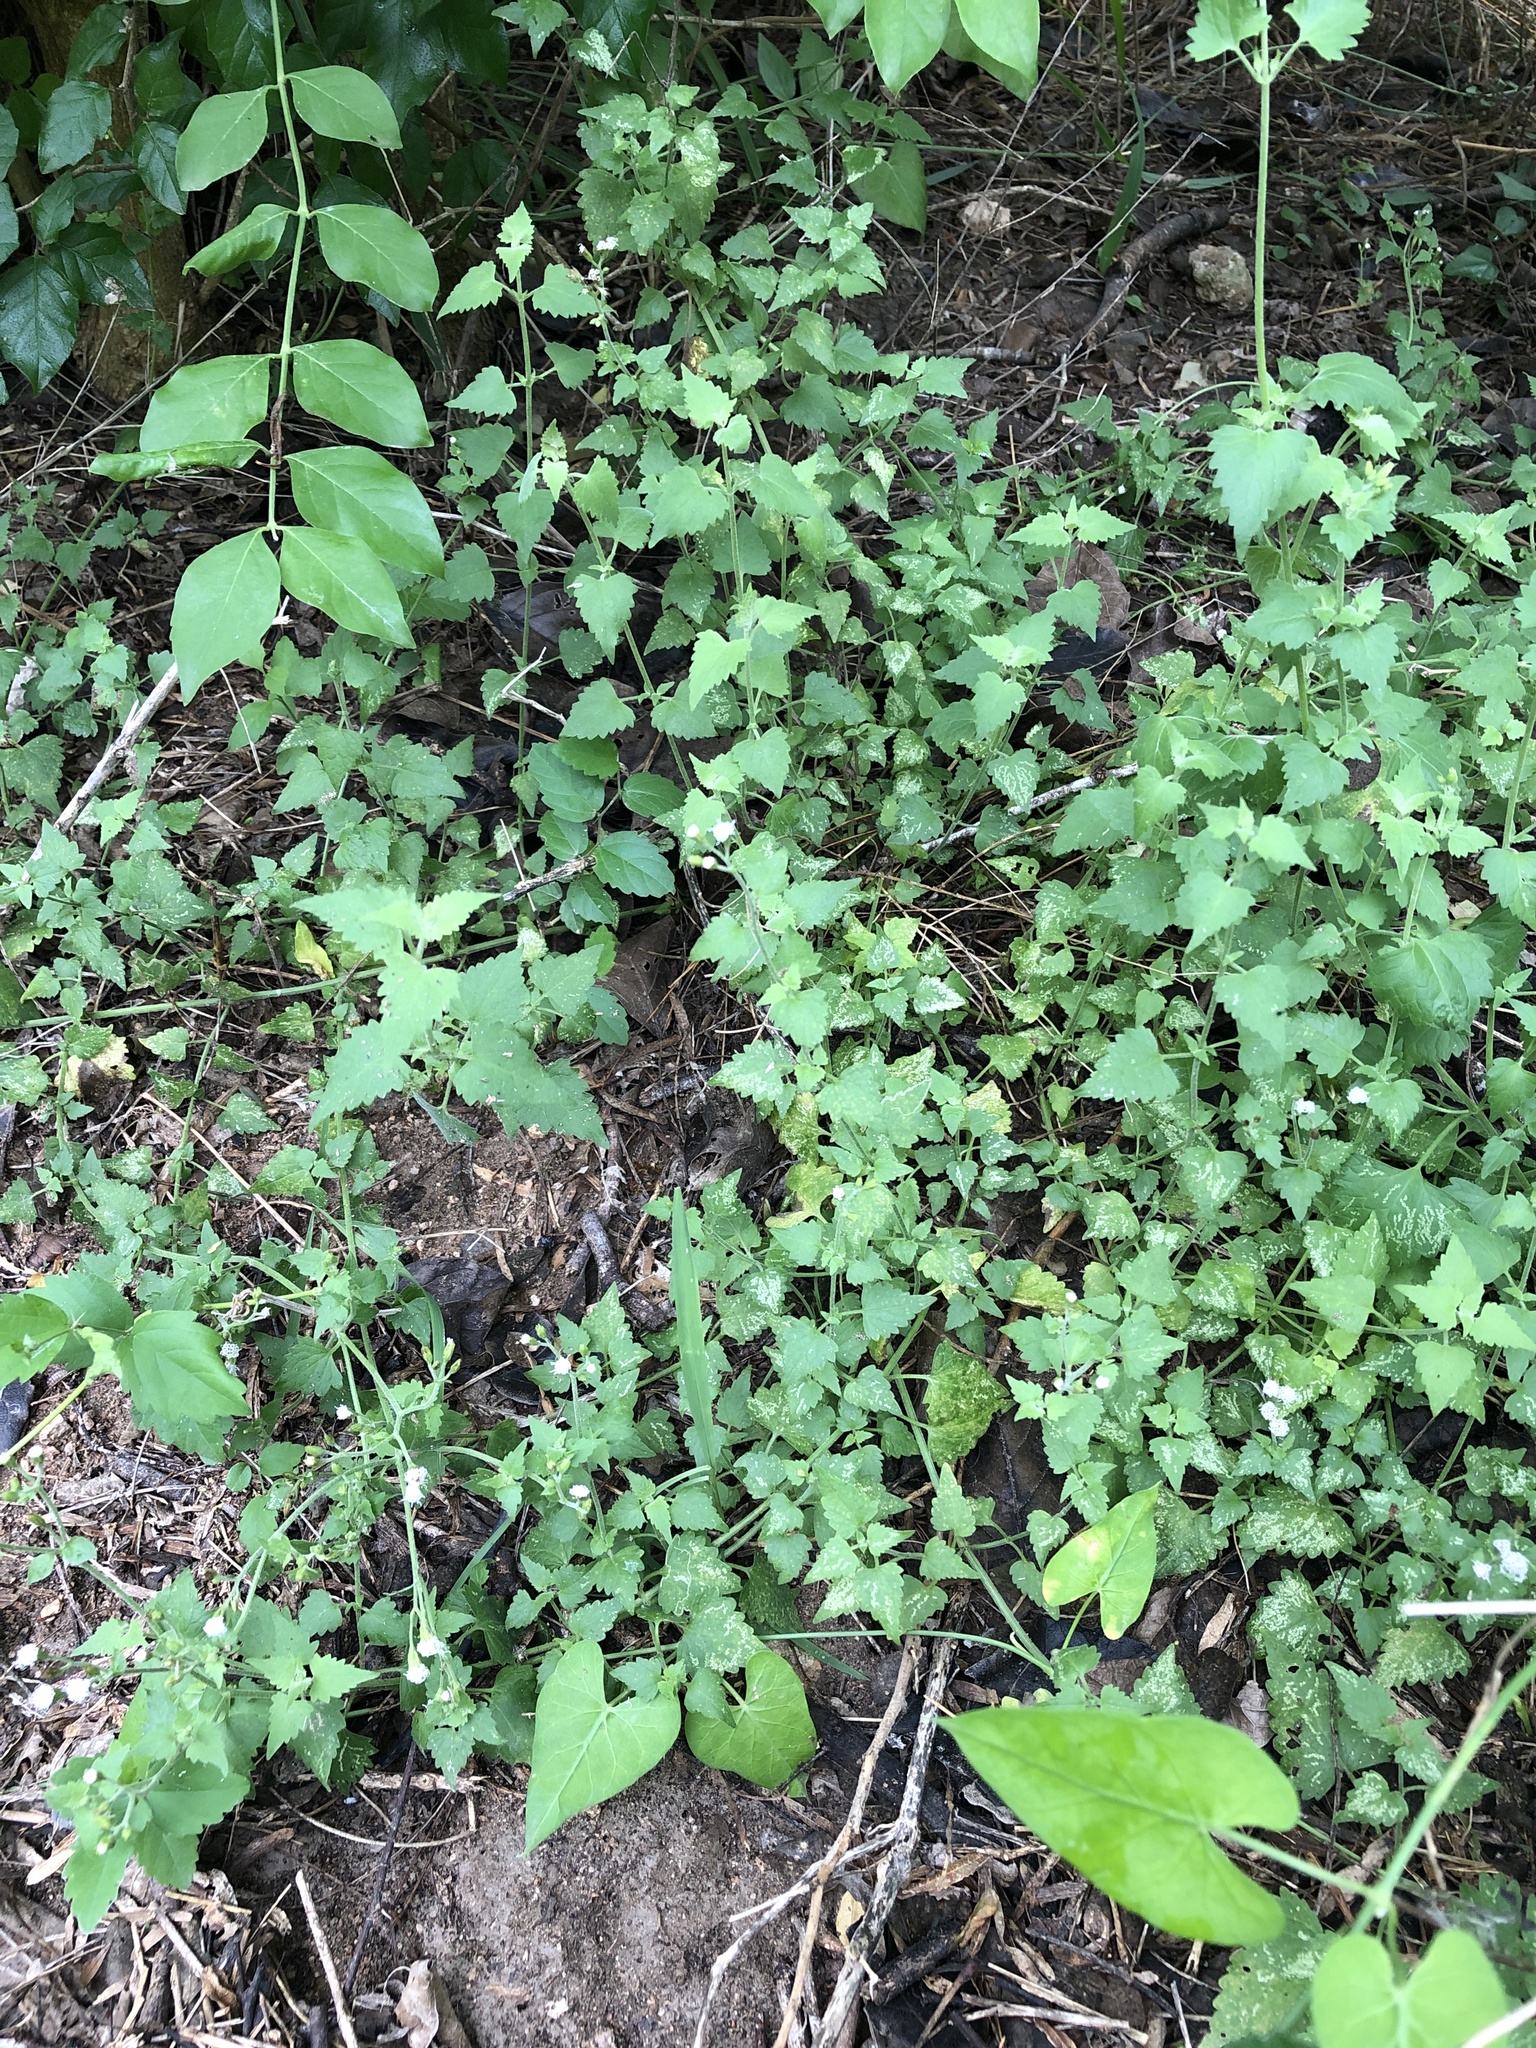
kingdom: Plantae
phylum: Tracheophyta
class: Magnoliopsida
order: Asterales
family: Asteraceae
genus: Fleischmannia
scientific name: Fleischmannia incarnata
